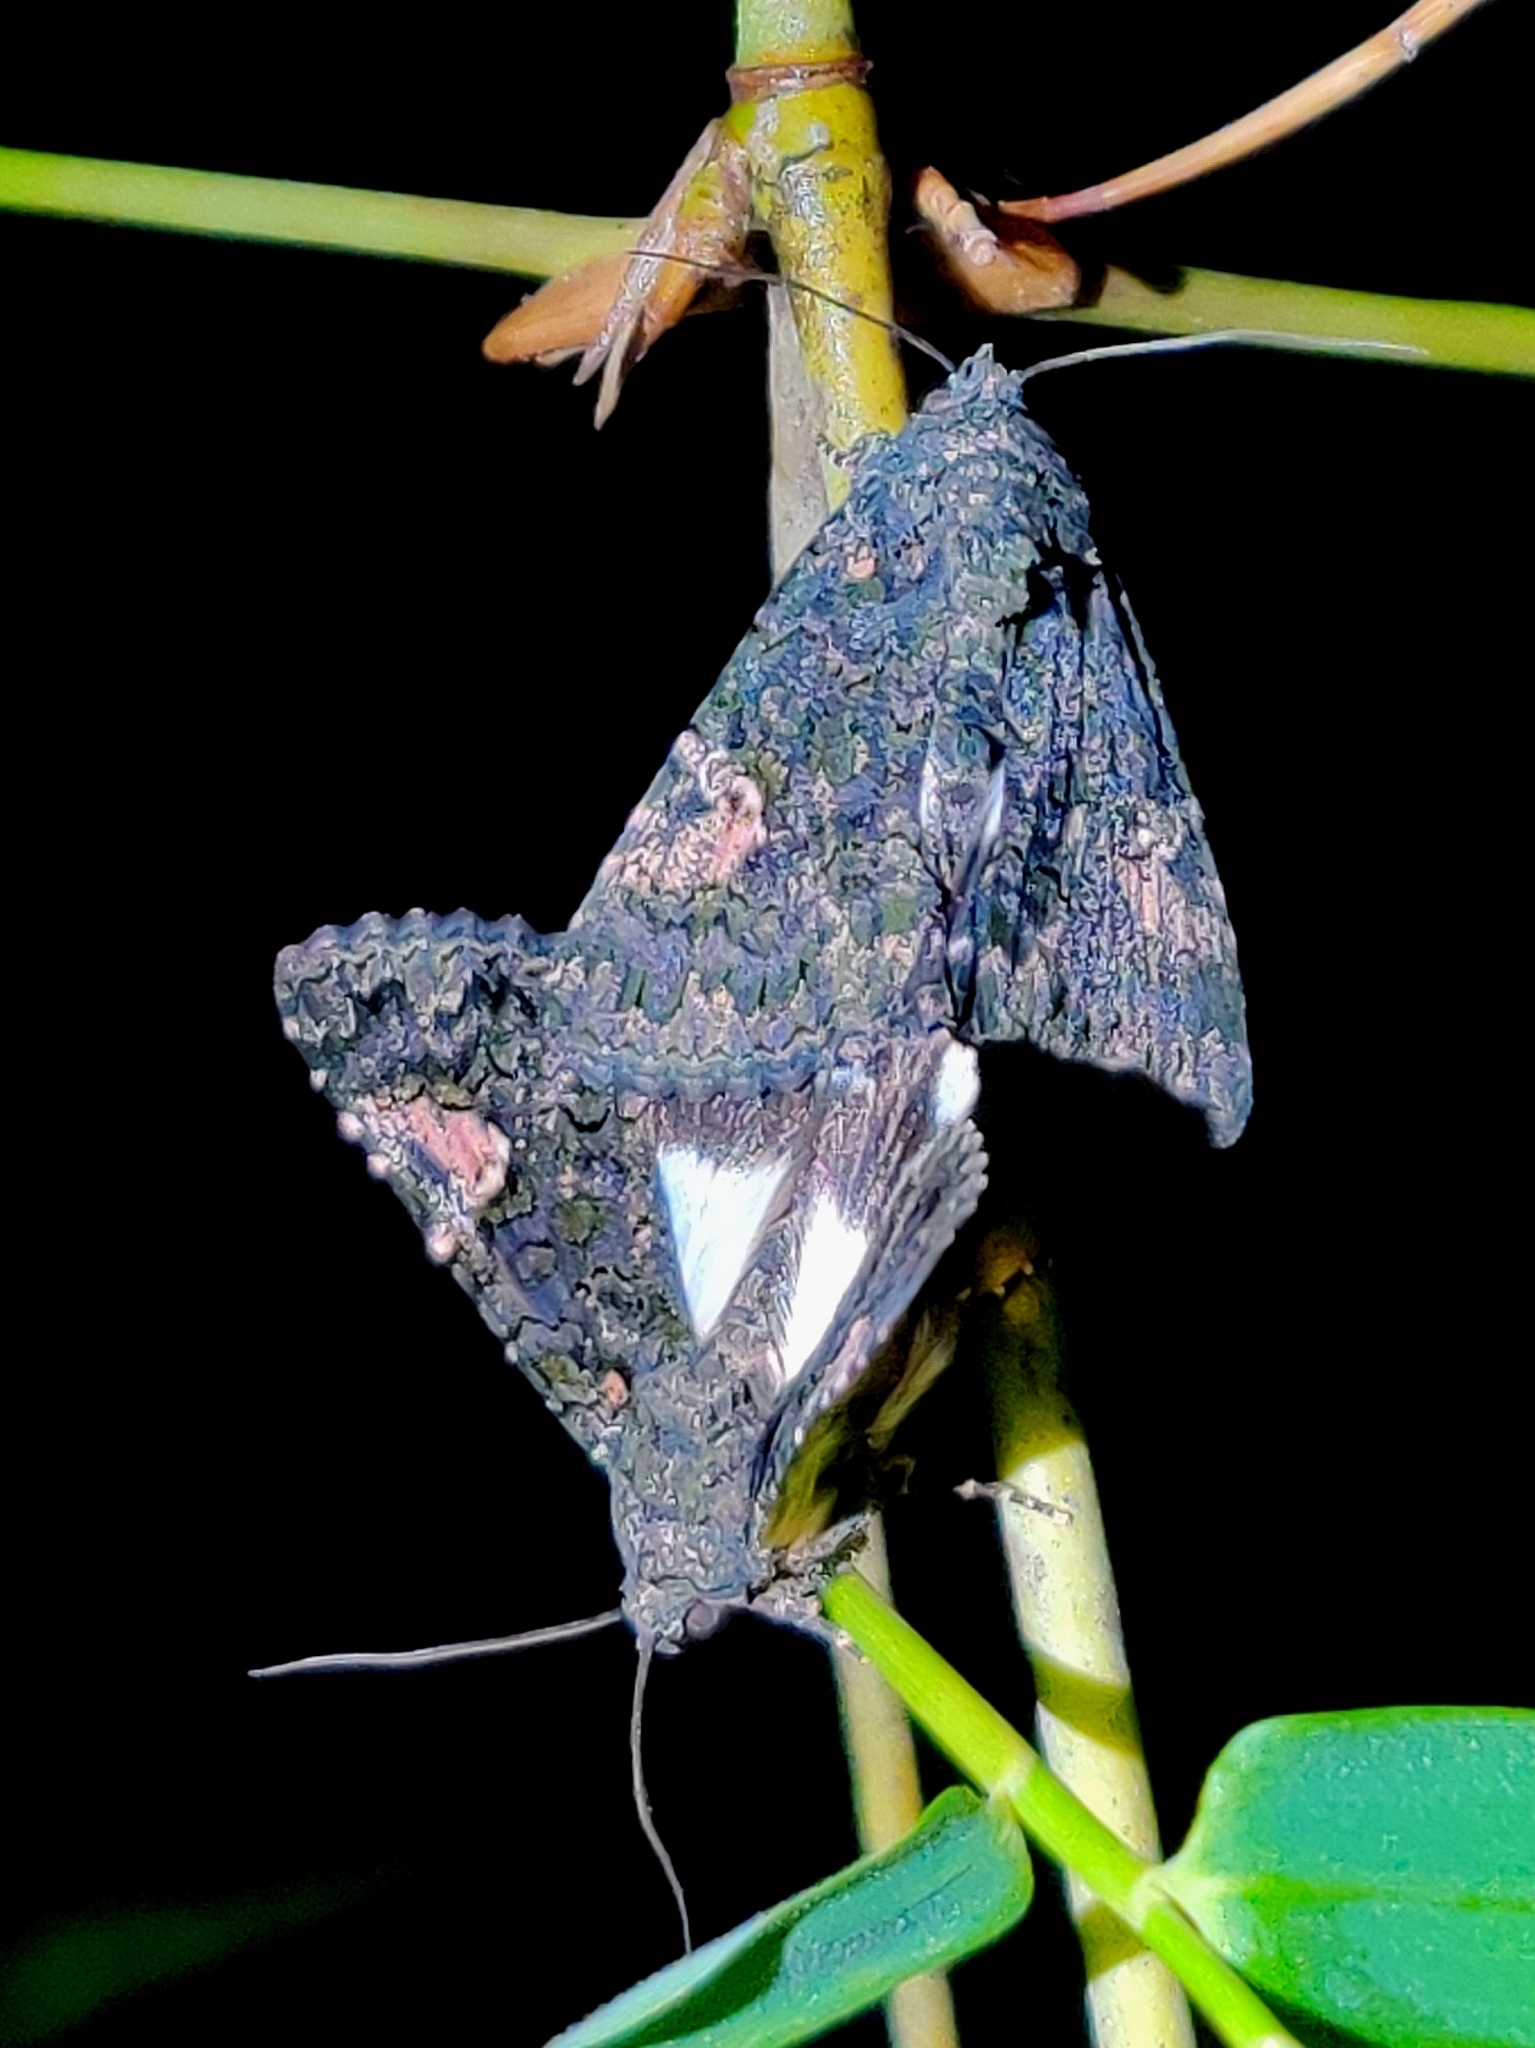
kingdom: Animalia
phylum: Arthropoda
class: Insecta
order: Lepidoptera
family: Noctuidae
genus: Aedia
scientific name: Aedia leucomelas
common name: Sorcerer
